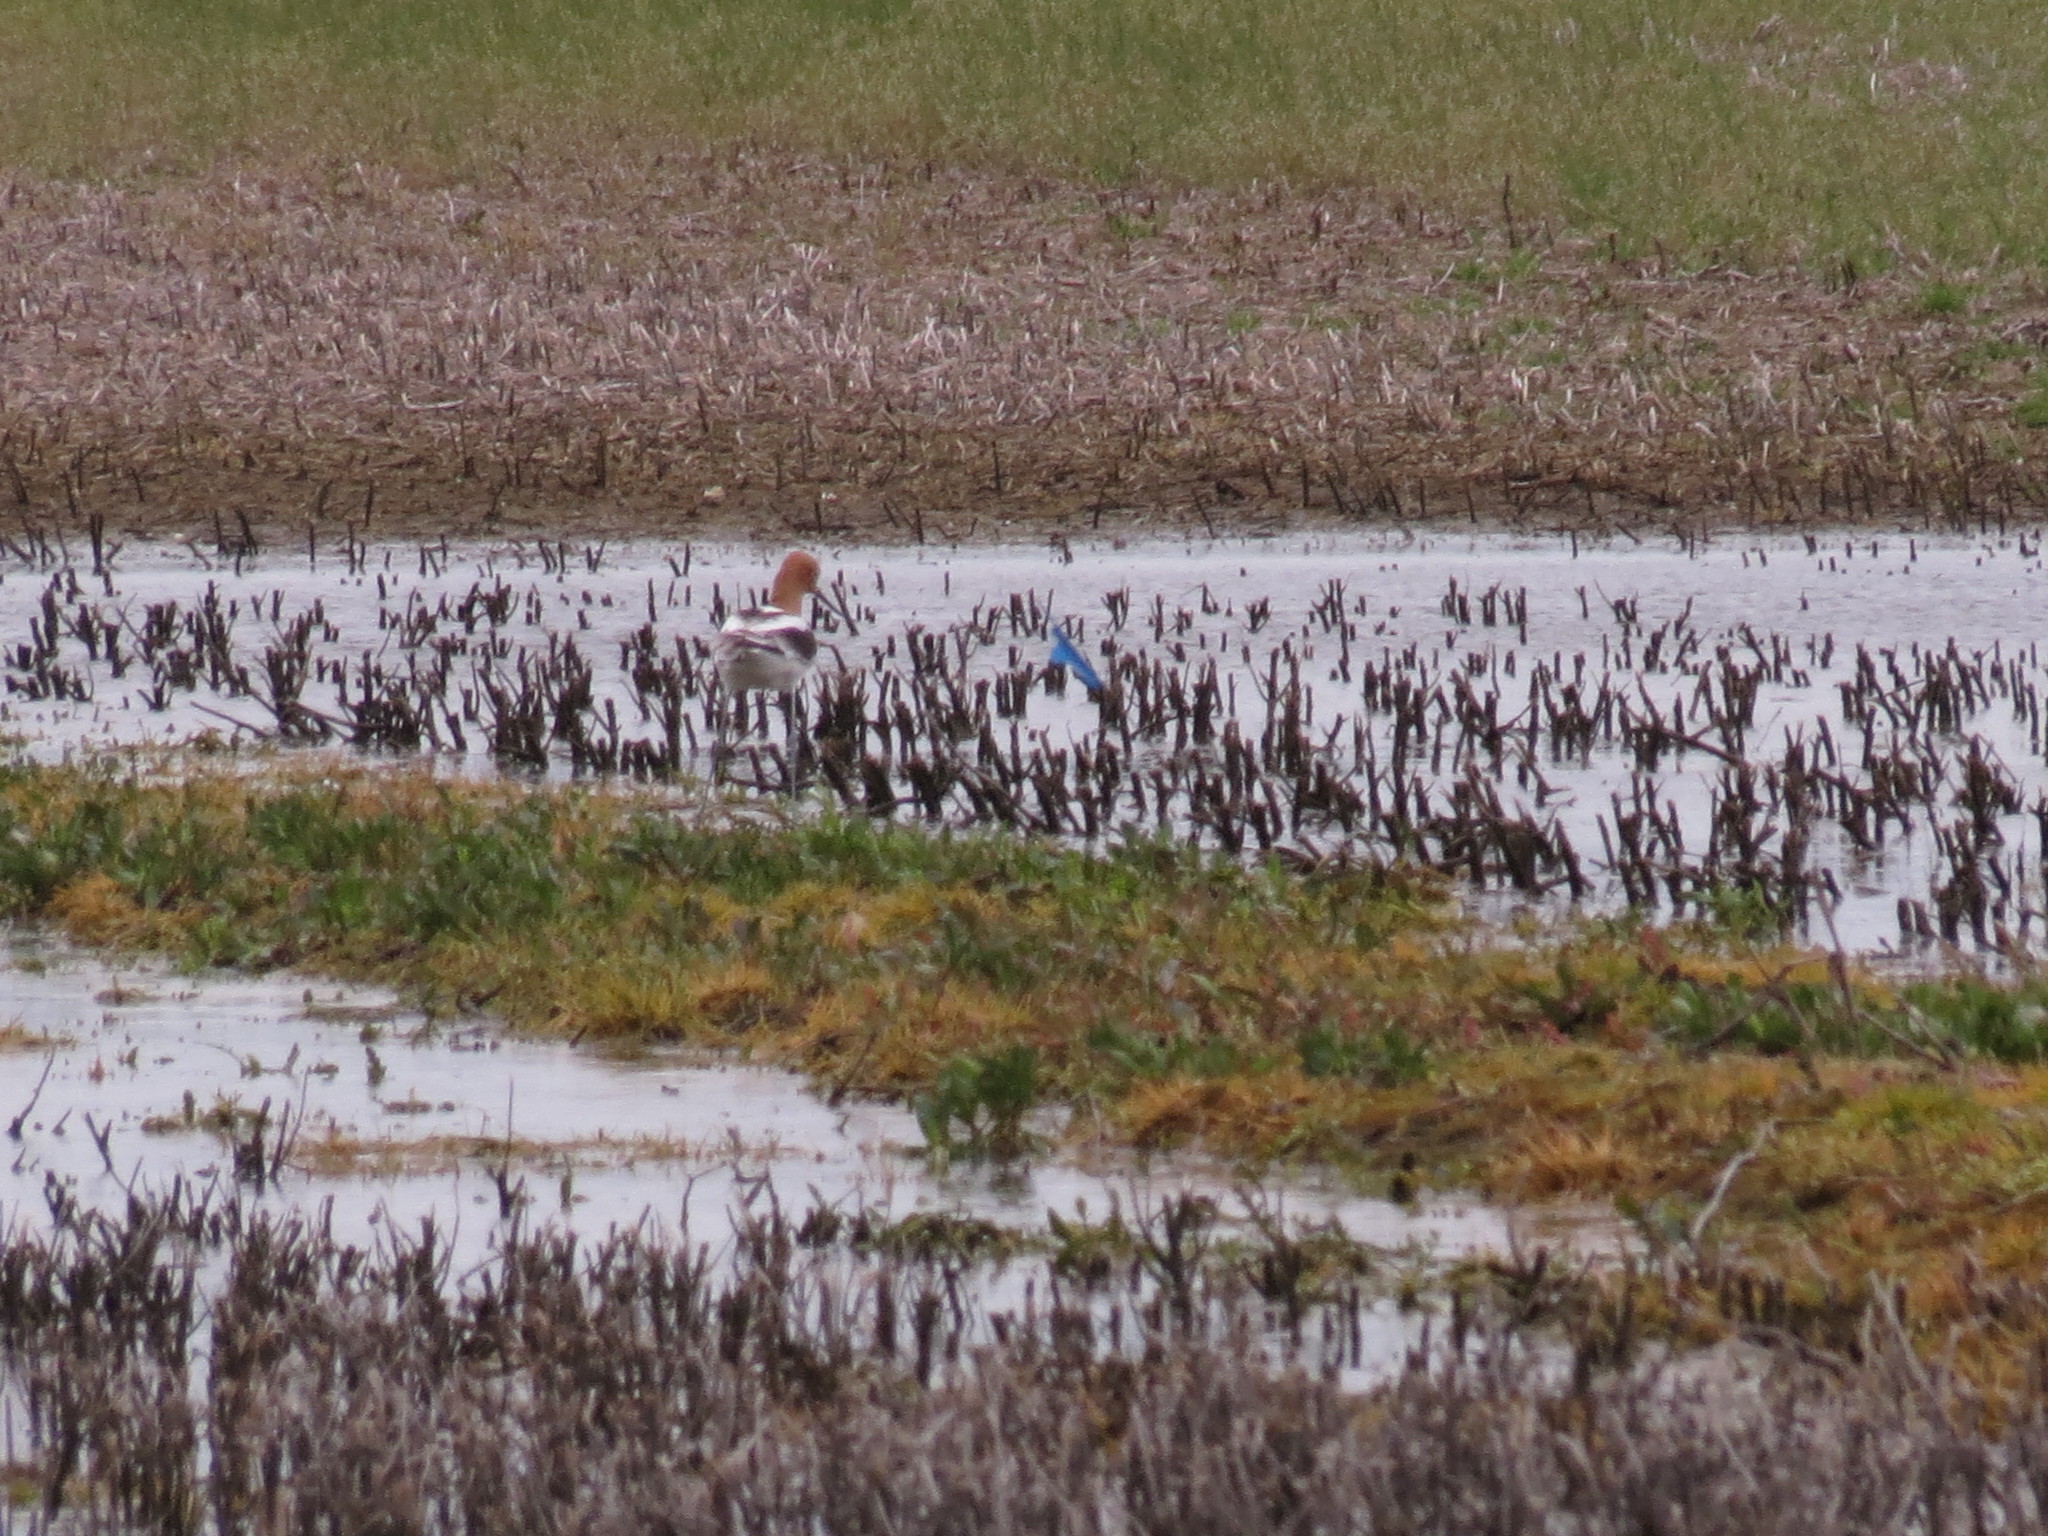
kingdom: Animalia
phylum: Chordata
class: Aves
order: Charadriiformes
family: Recurvirostridae
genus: Recurvirostra
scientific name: Recurvirostra americana
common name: American avocet
